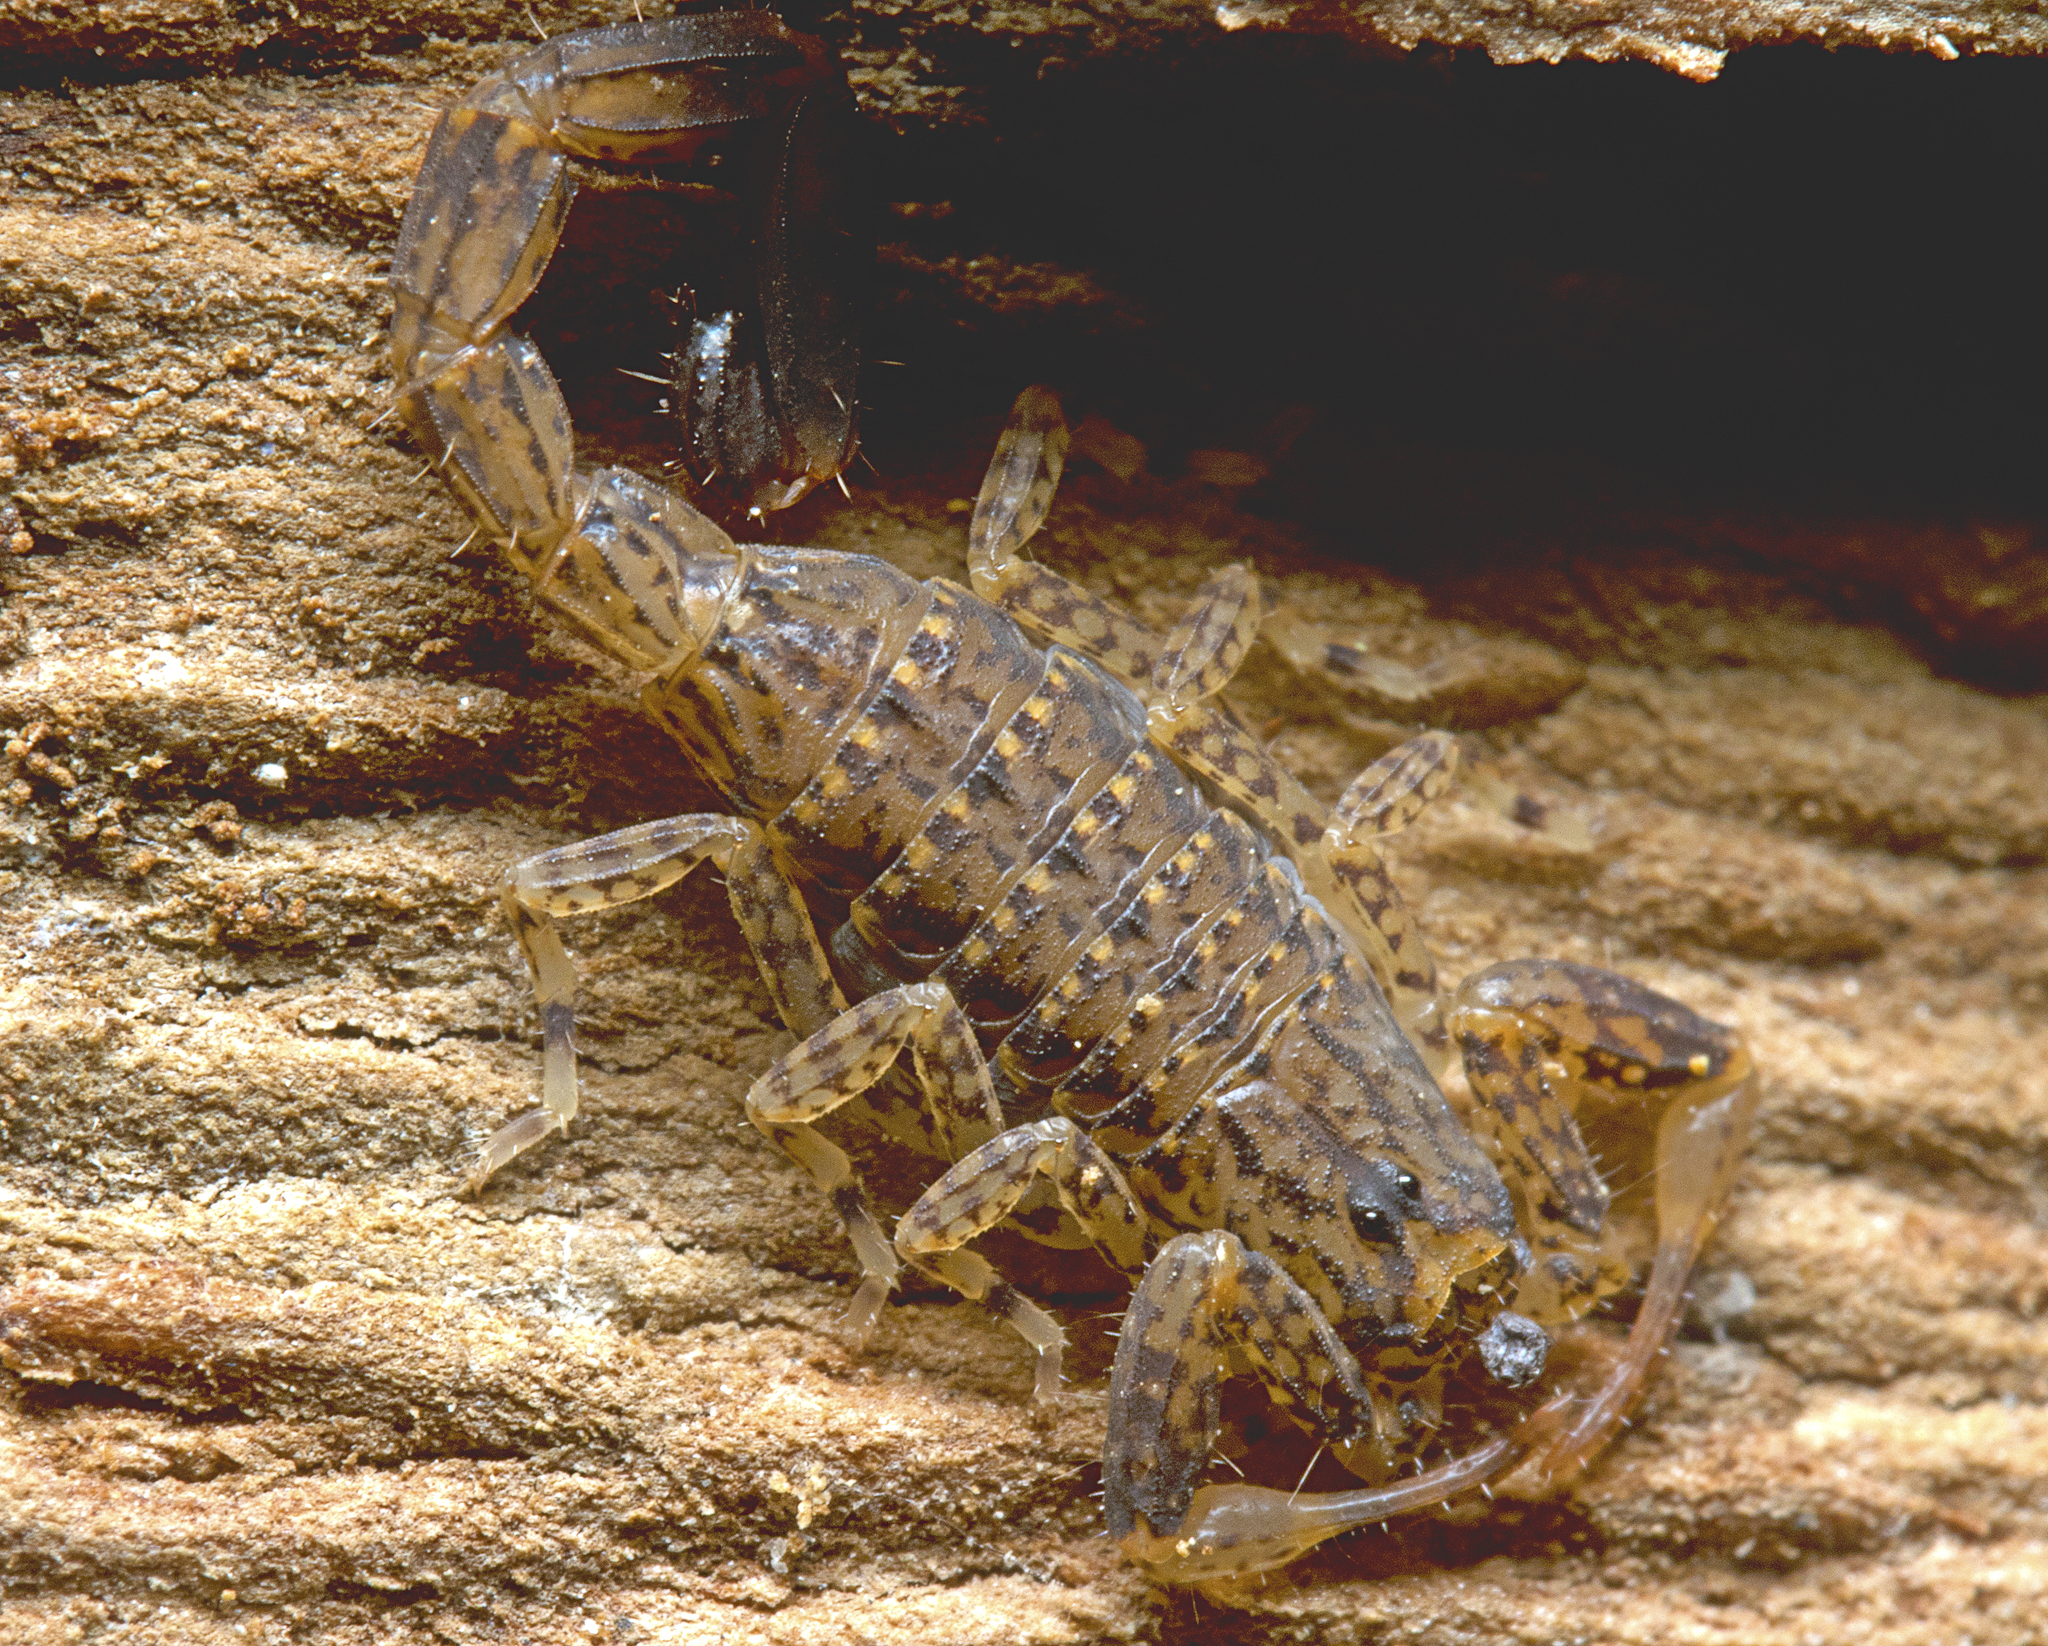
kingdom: Animalia
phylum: Arthropoda
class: Arachnida
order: Scorpiones
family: Buthidae
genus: Lychas
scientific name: Lychas variatus
